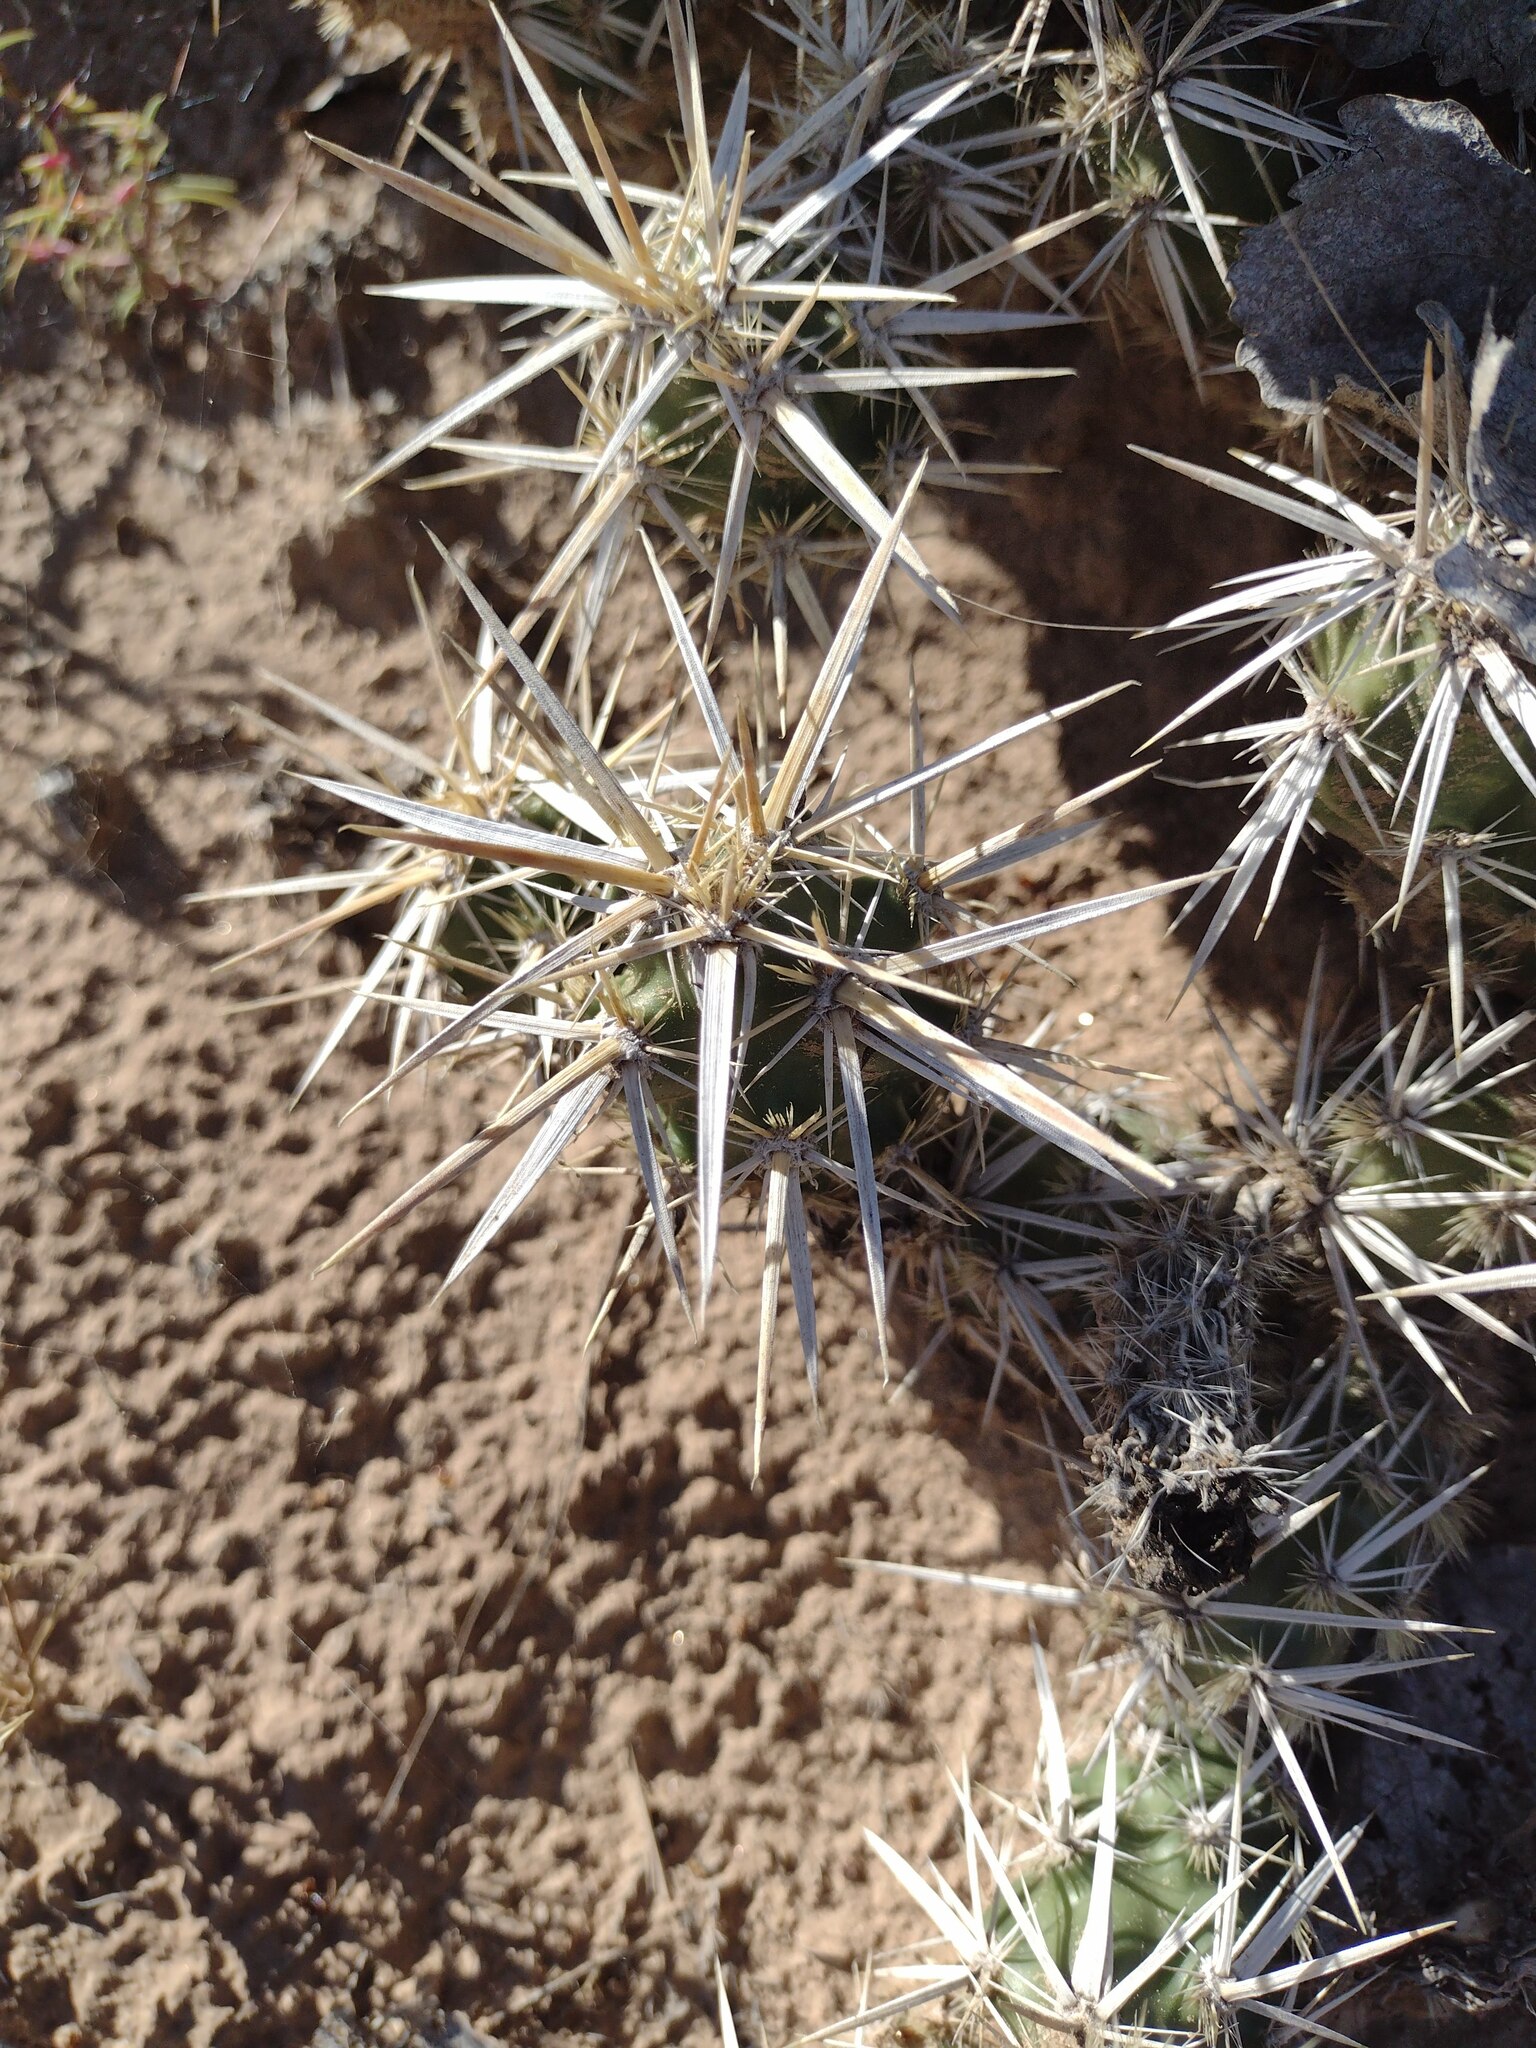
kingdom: Plantae
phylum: Tracheophyta
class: Magnoliopsida
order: Caryophyllales
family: Cactaceae
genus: Grusonia
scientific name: Grusonia clavata
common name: Club cholla
